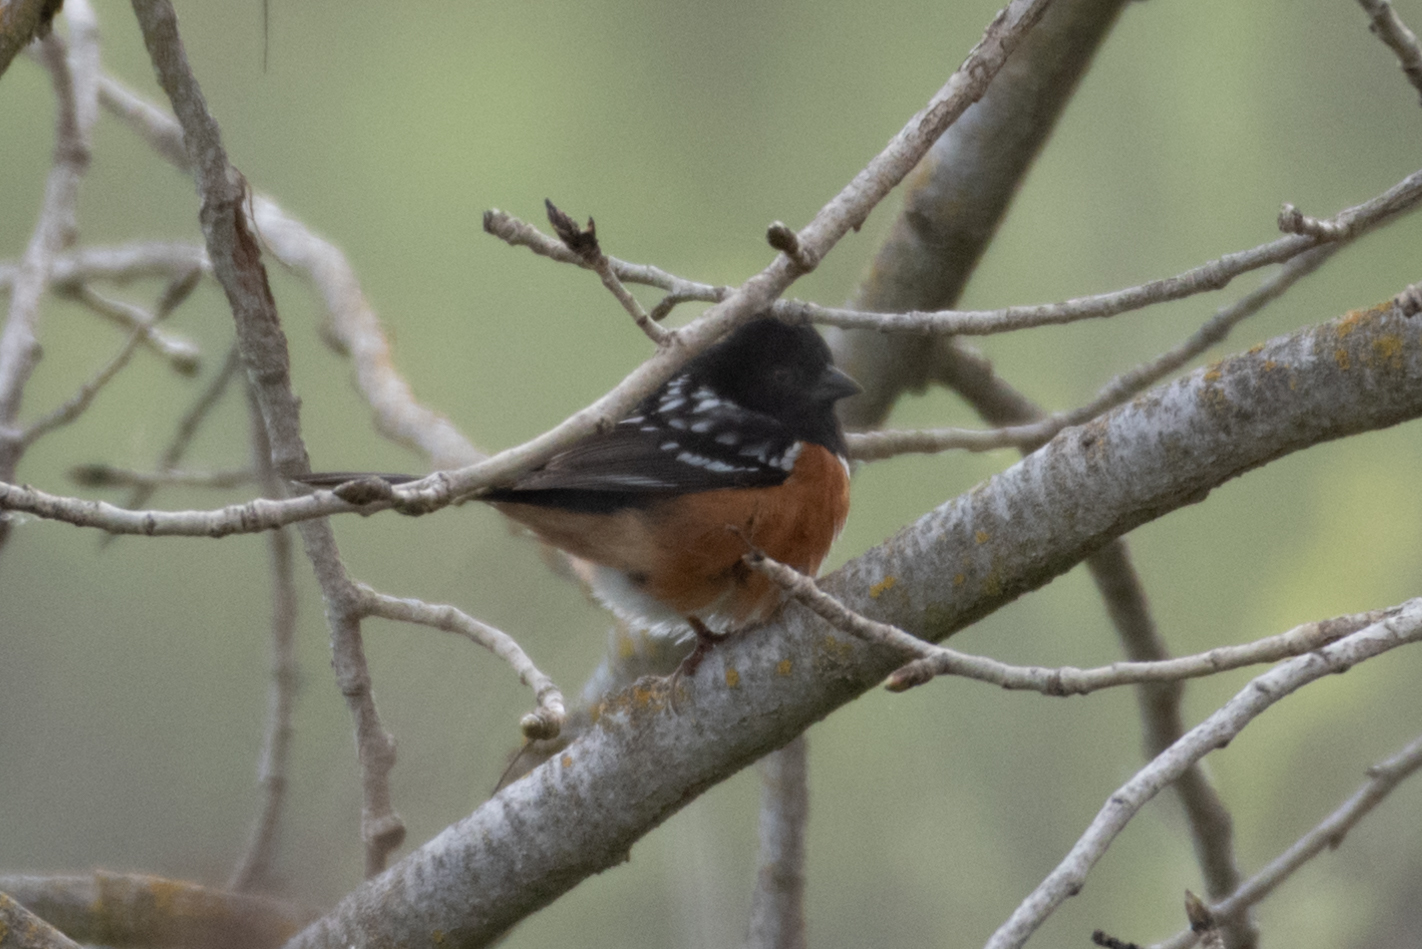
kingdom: Animalia
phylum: Chordata
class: Aves
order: Passeriformes
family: Passerellidae
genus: Pipilo
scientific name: Pipilo maculatus
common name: Spotted towhee
